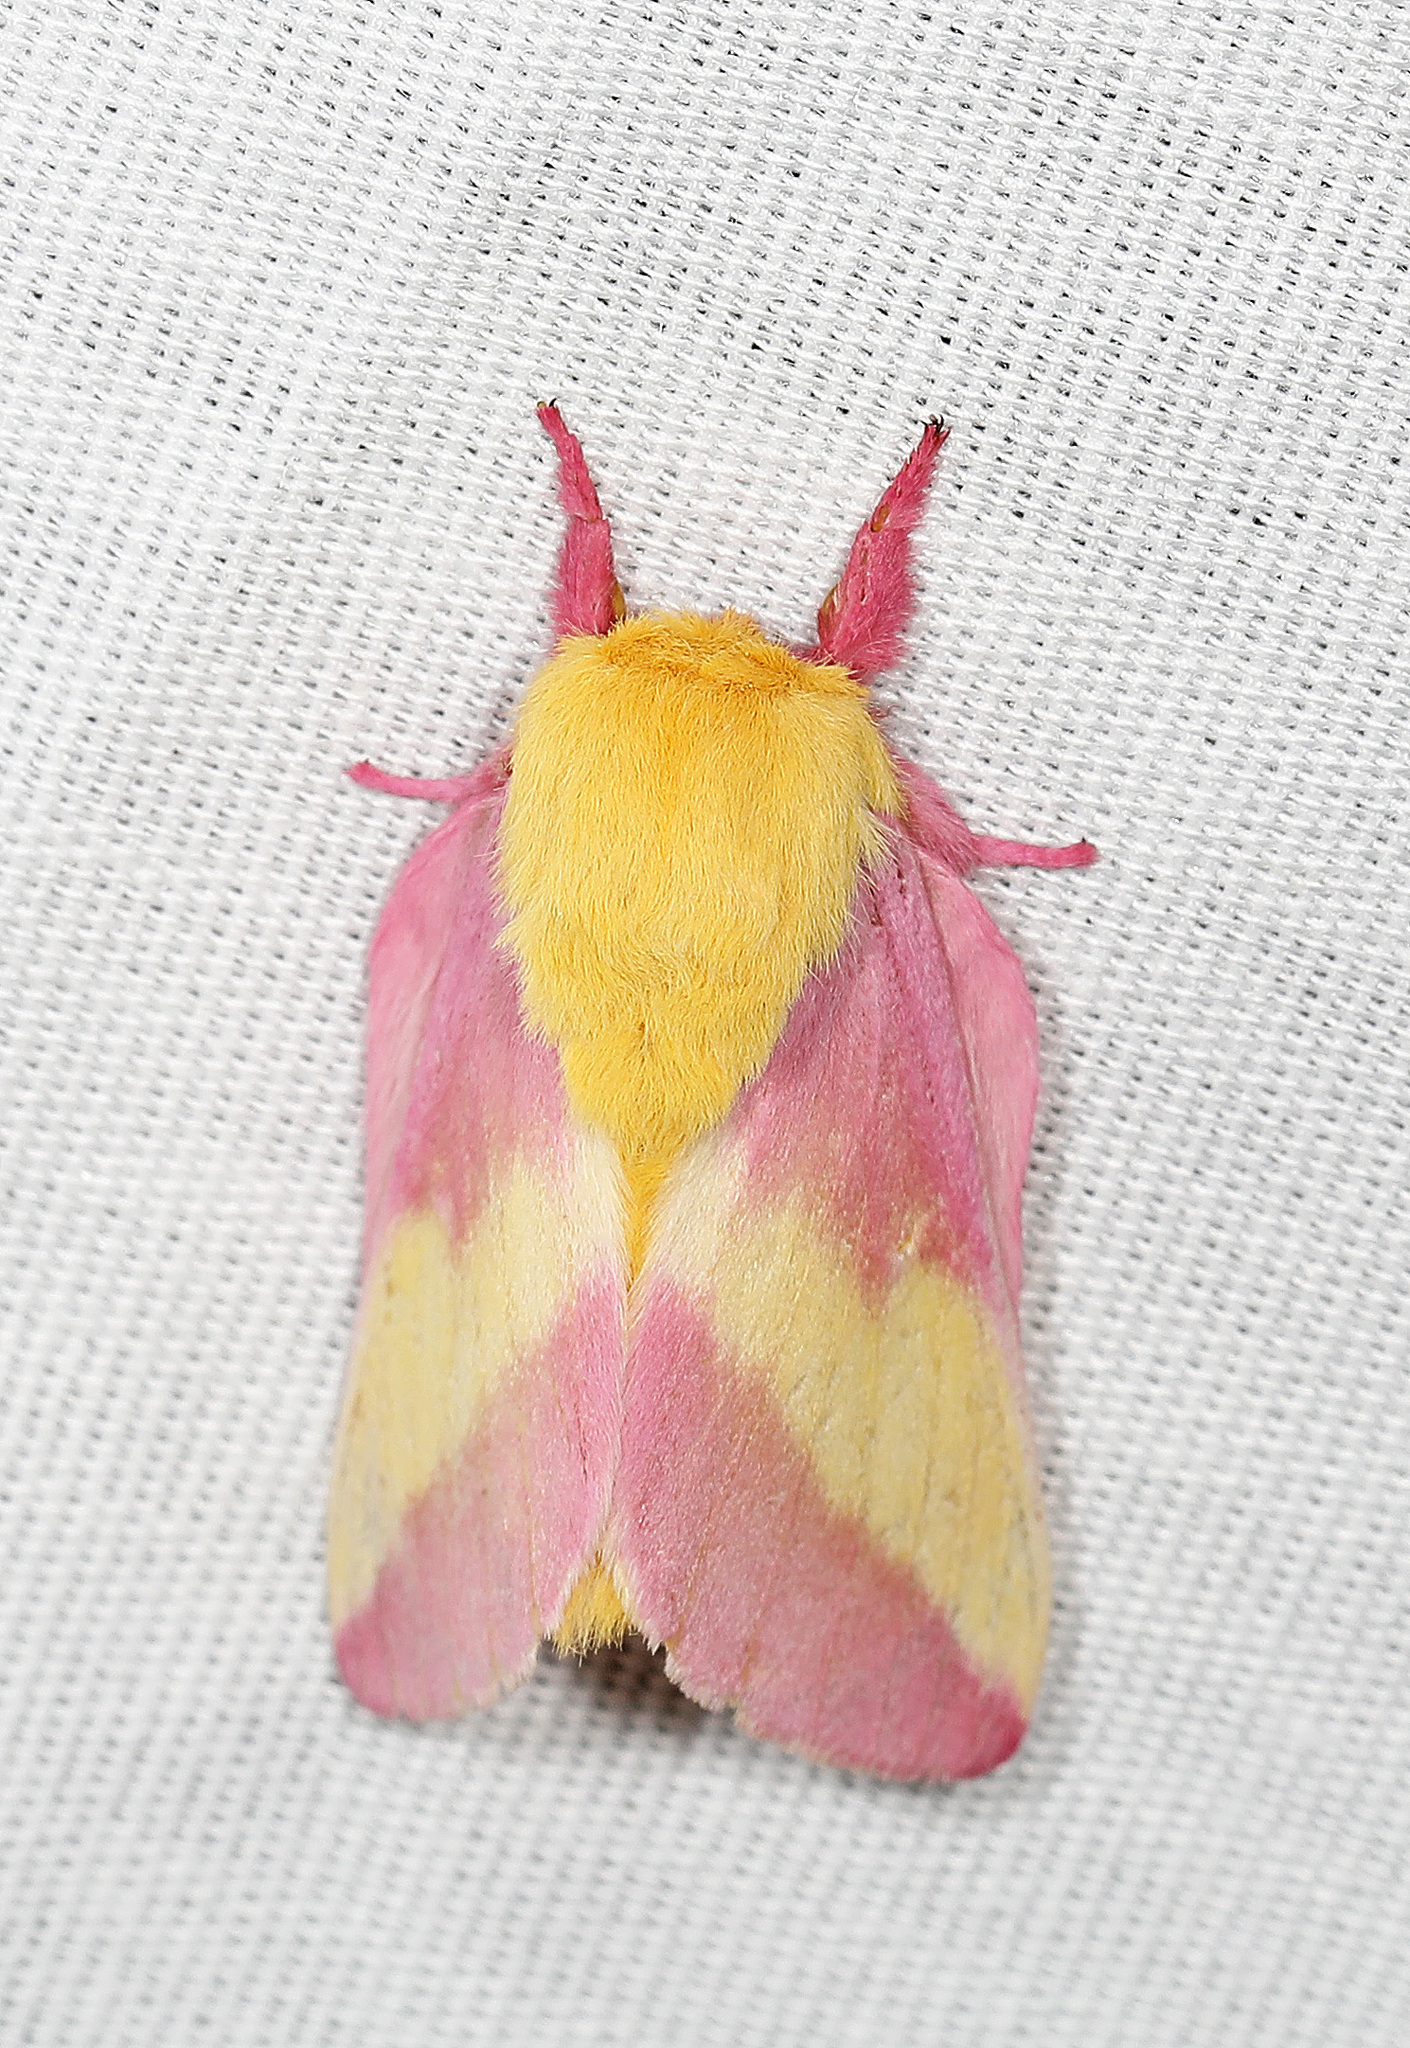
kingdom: Animalia
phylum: Arthropoda
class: Insecta
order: Lepidoptera
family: Saturniidae
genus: Dryocampa
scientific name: Dryocampa rubicunda
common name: Rosy maple moth
